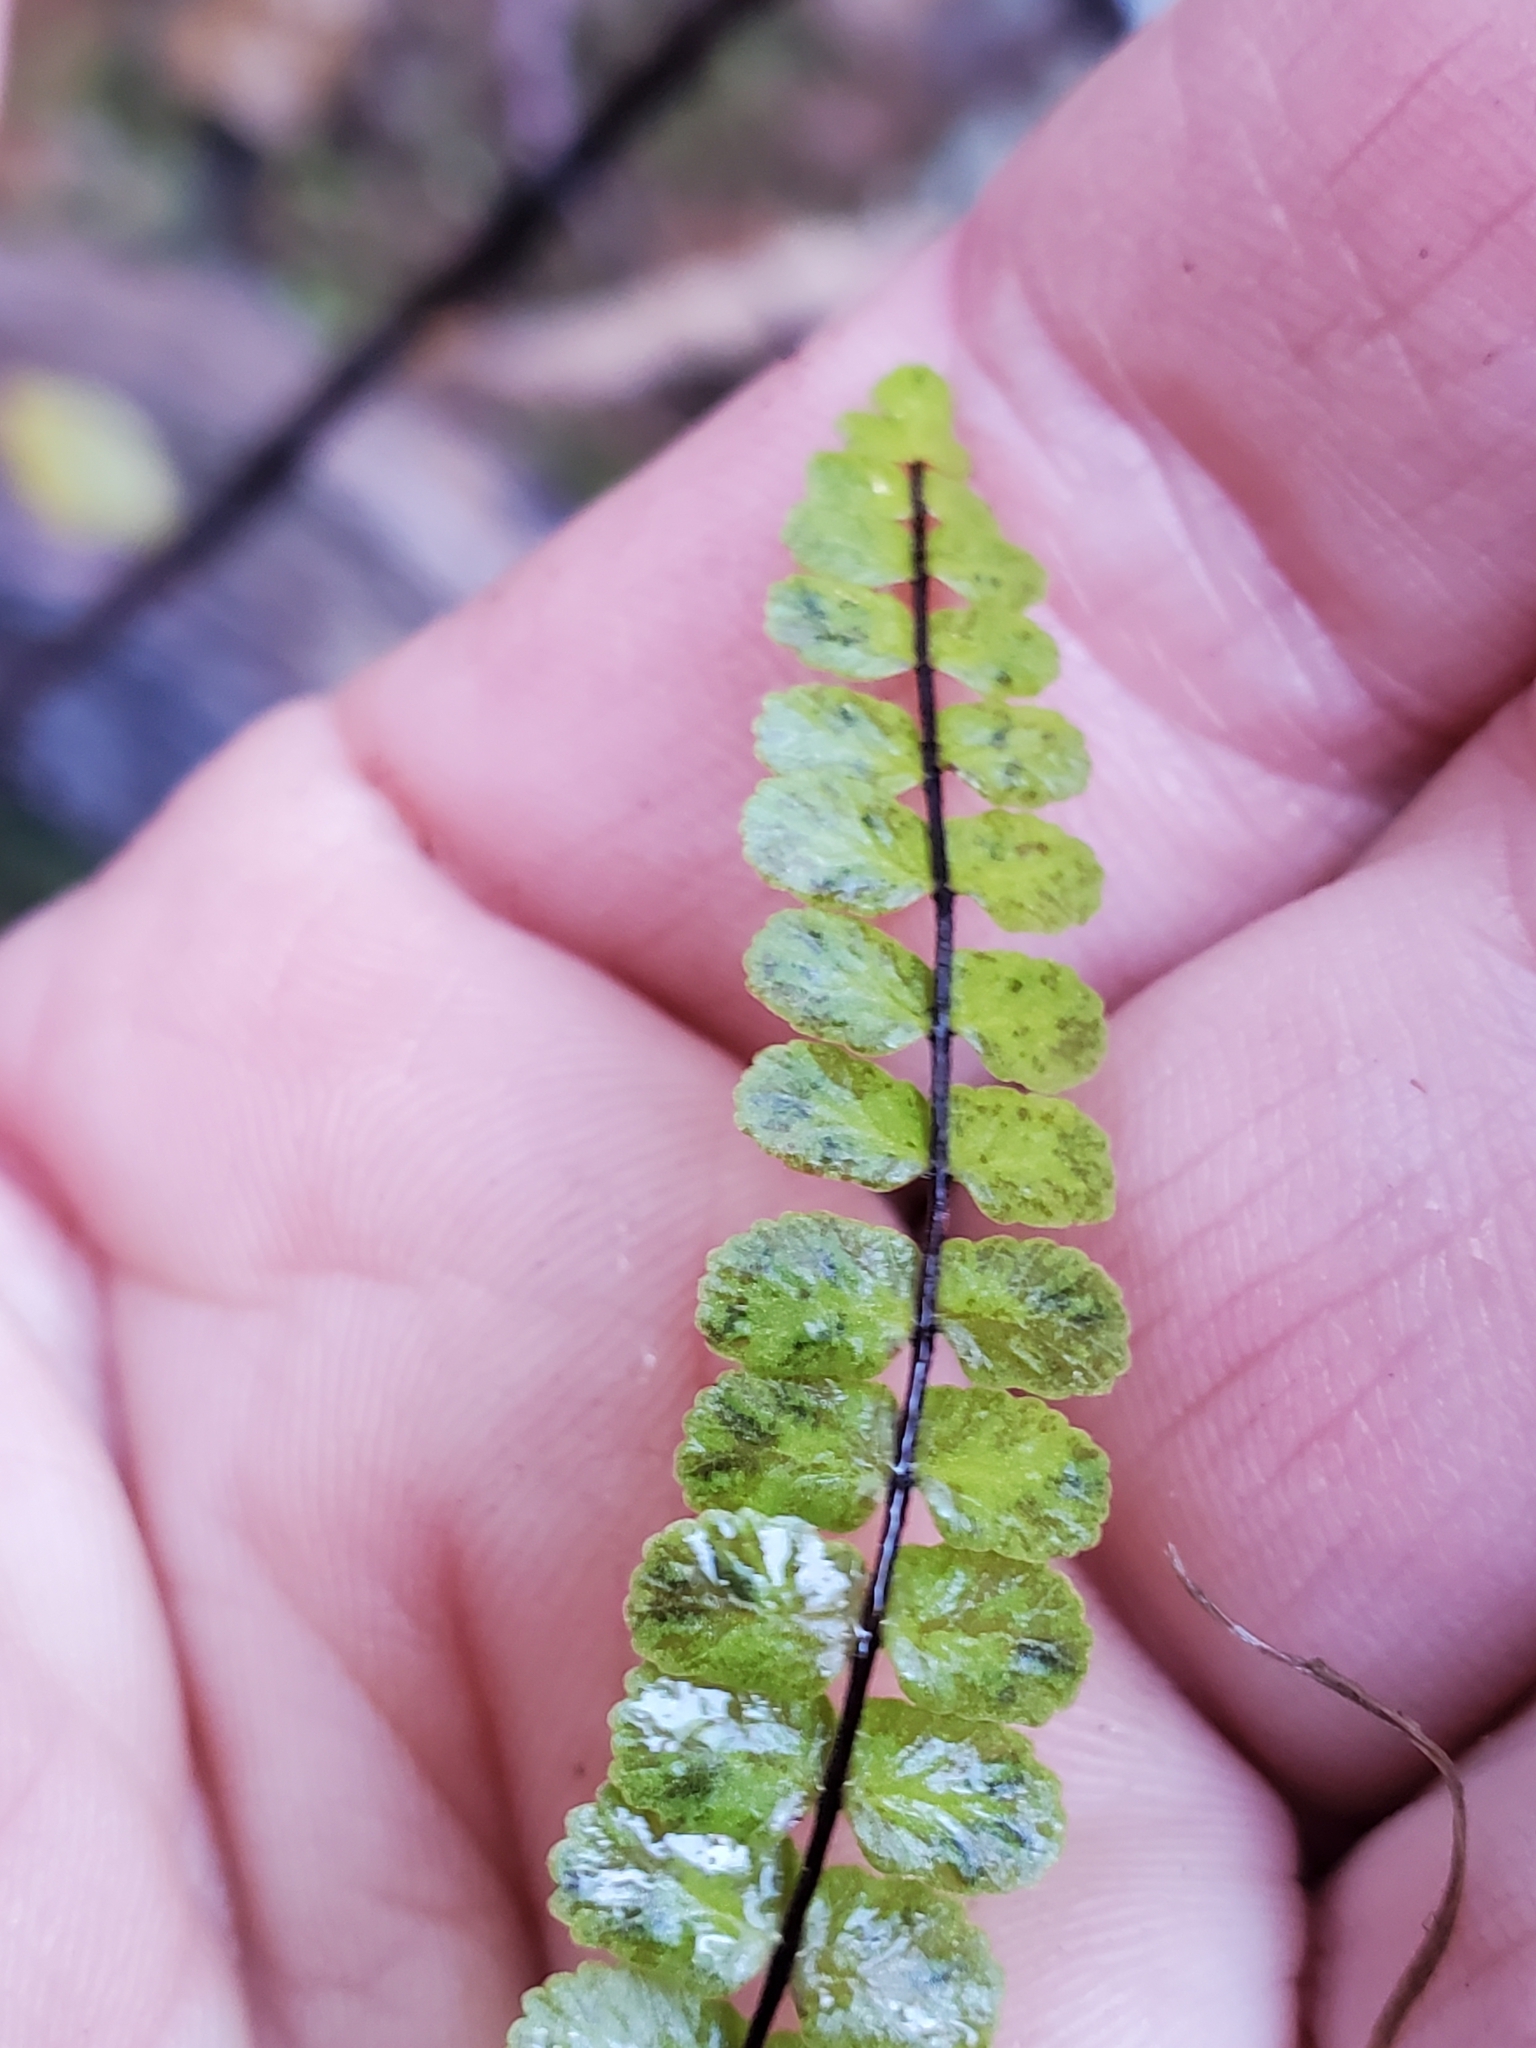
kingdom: Plantae
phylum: Tracheophyta
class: Polypodiopsida
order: Polypodiales
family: Aspleniaceae
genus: Asplenium
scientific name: Asplenium trichomanes
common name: Maidenhair spleenwort
